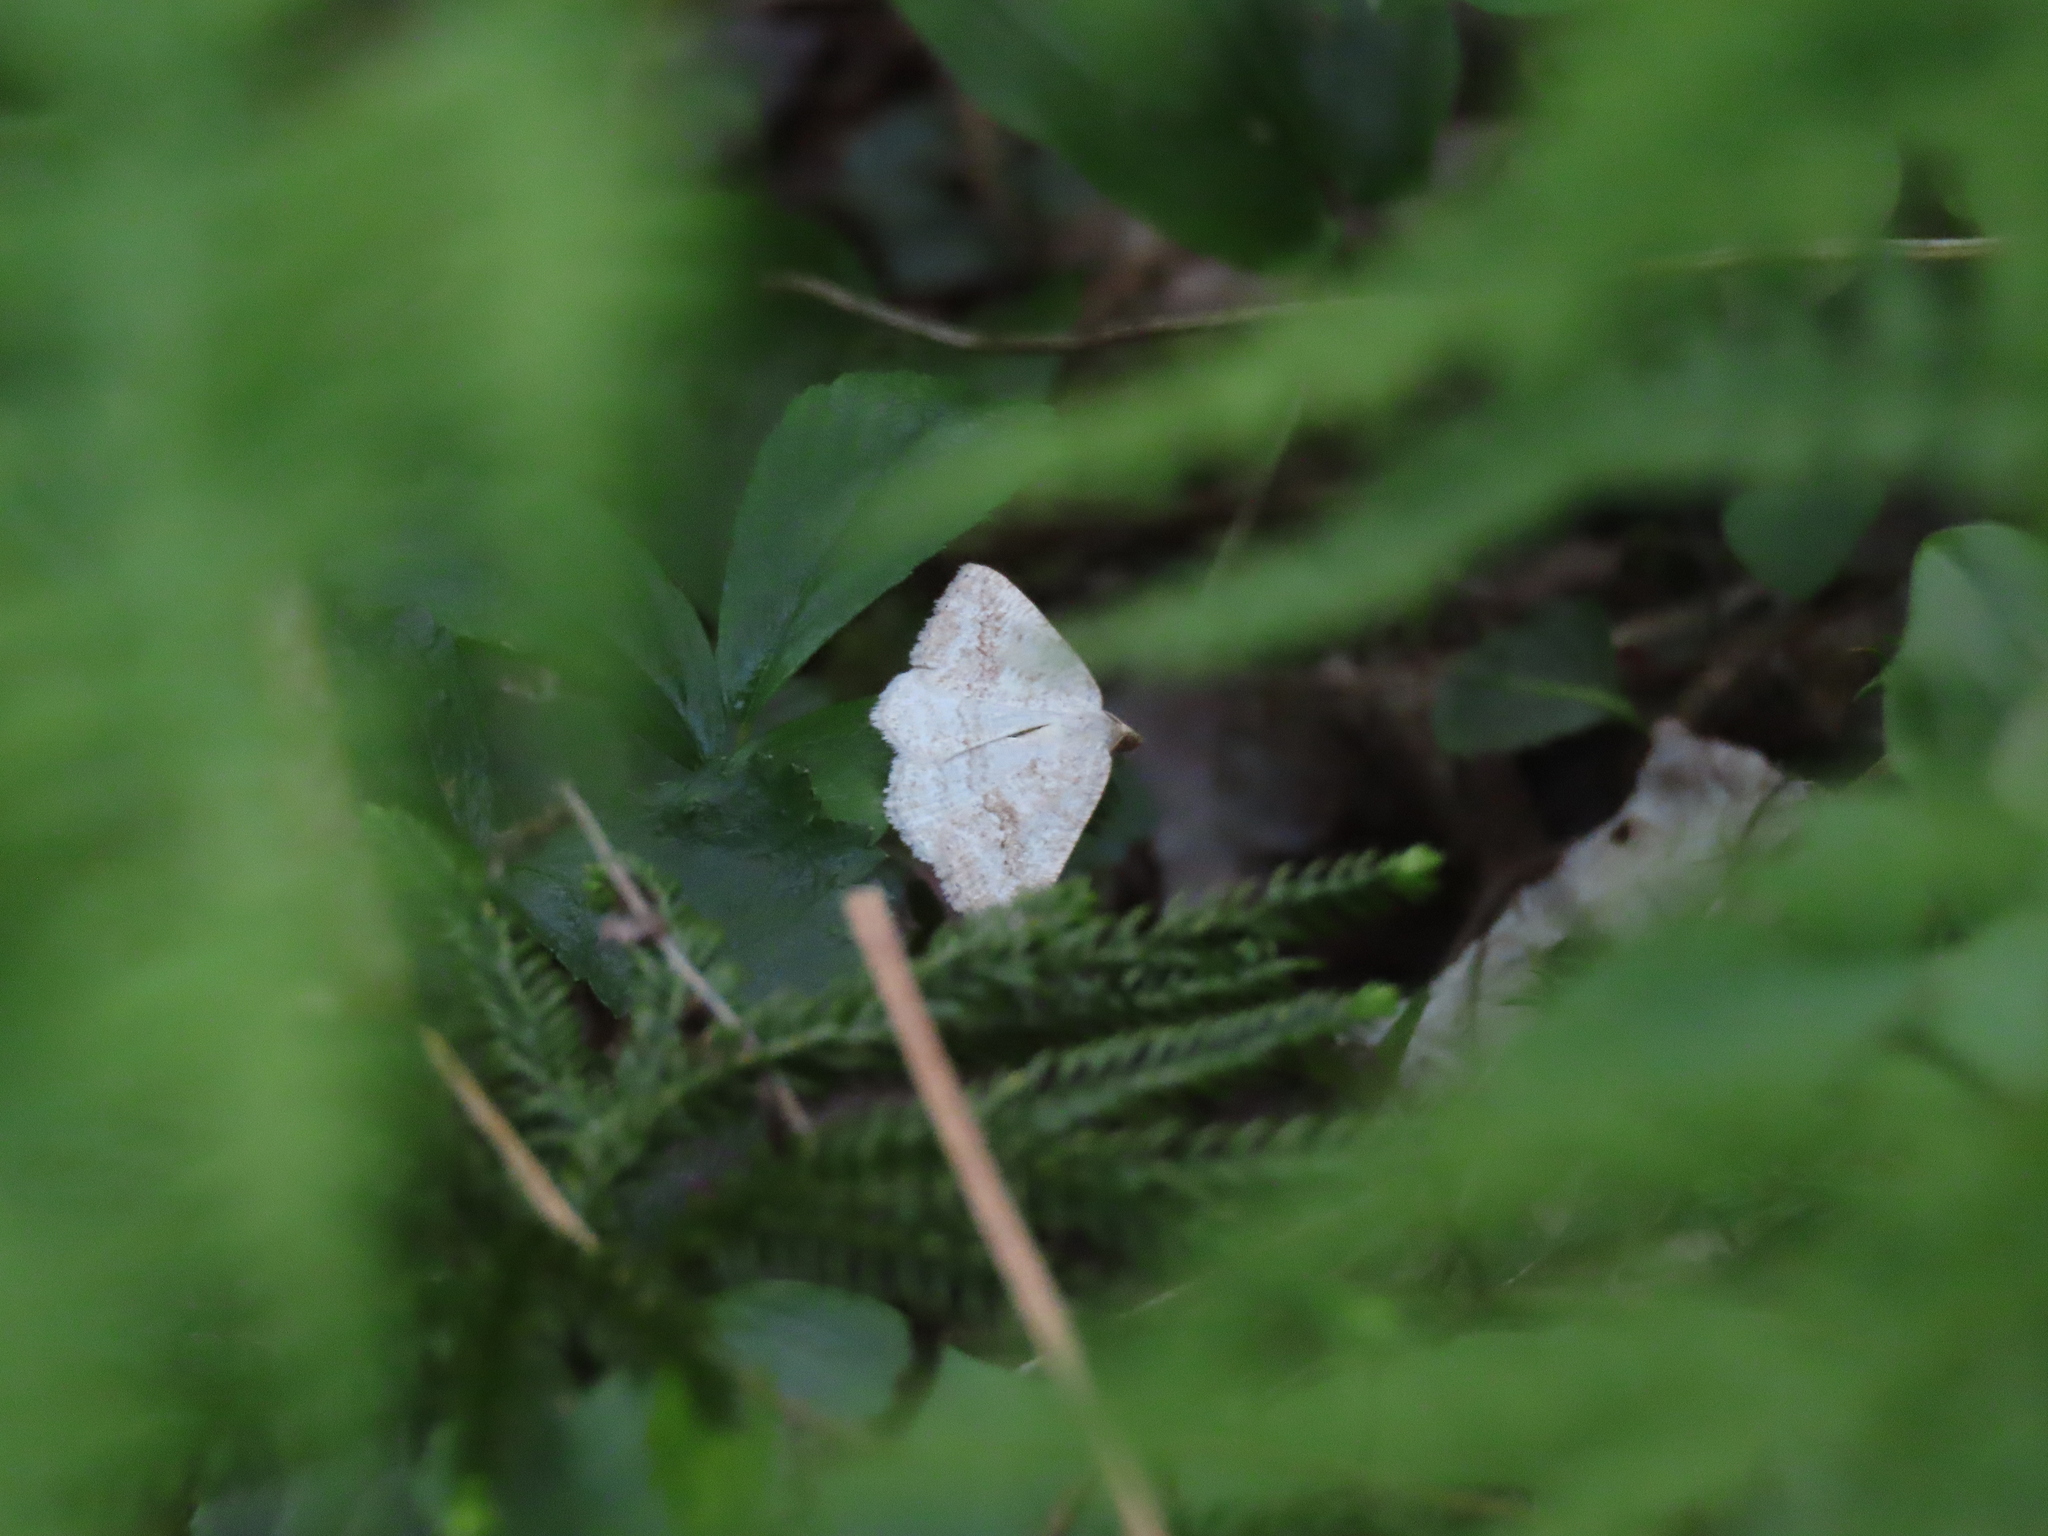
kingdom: Animalia
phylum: Arthropoda
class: Insecta
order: Lepidoptera
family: Geometridae
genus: Tacparia
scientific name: Tacparia detersata
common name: Pale alder moth
